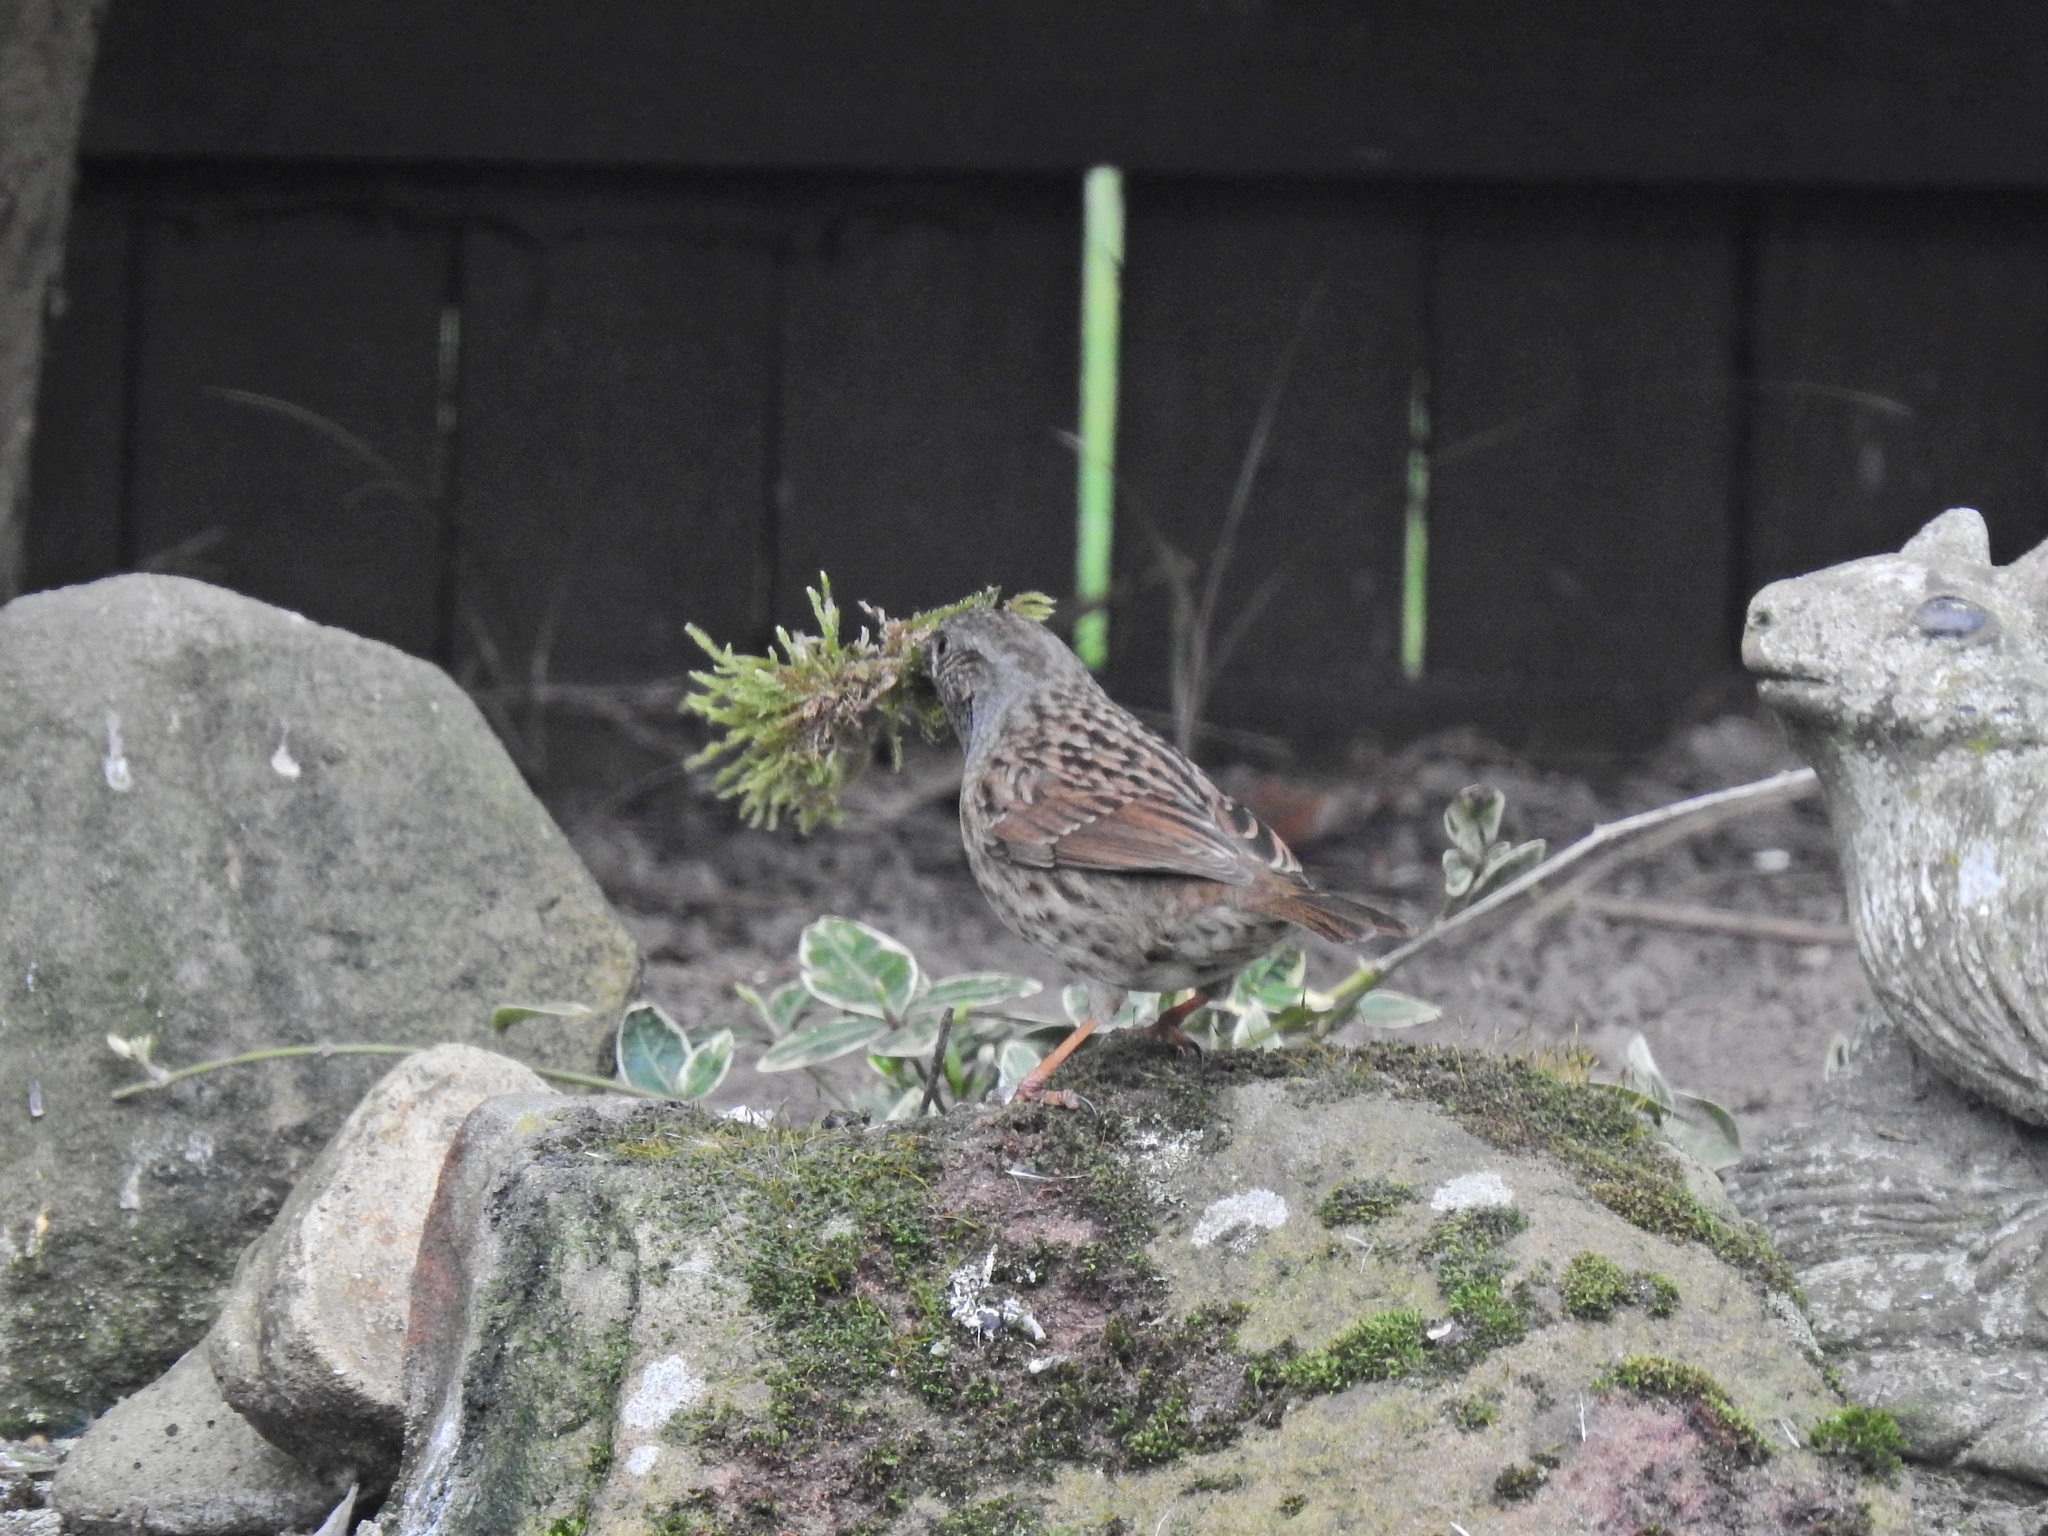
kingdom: Animalia
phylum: Chordata
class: Aves
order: Passeriformes
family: Prunellidae
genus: Prunella
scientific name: Prunella modularis
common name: Dunnock
